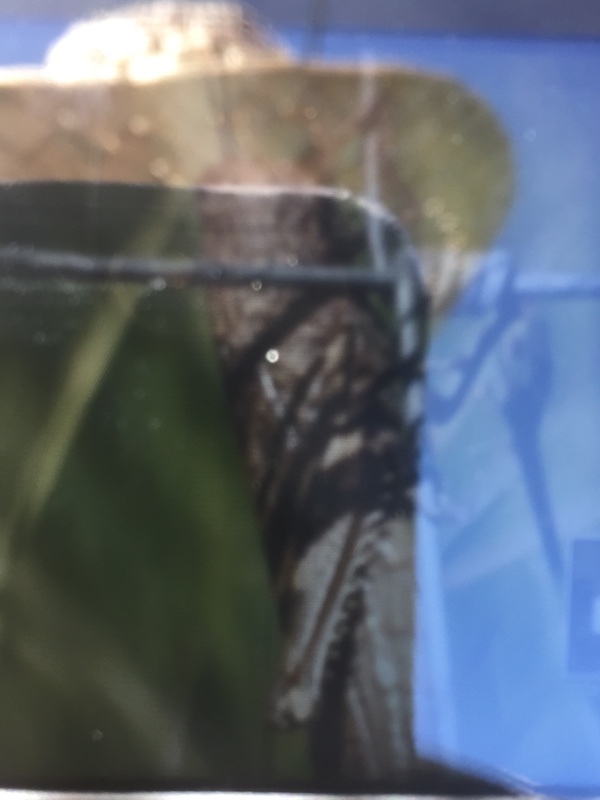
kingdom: Animalia
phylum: Arthropoda
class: Insecta
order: Orthoptera
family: Acrididae
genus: Anacridium
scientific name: Anacridium aegyptium
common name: Egyptian grasshopper
